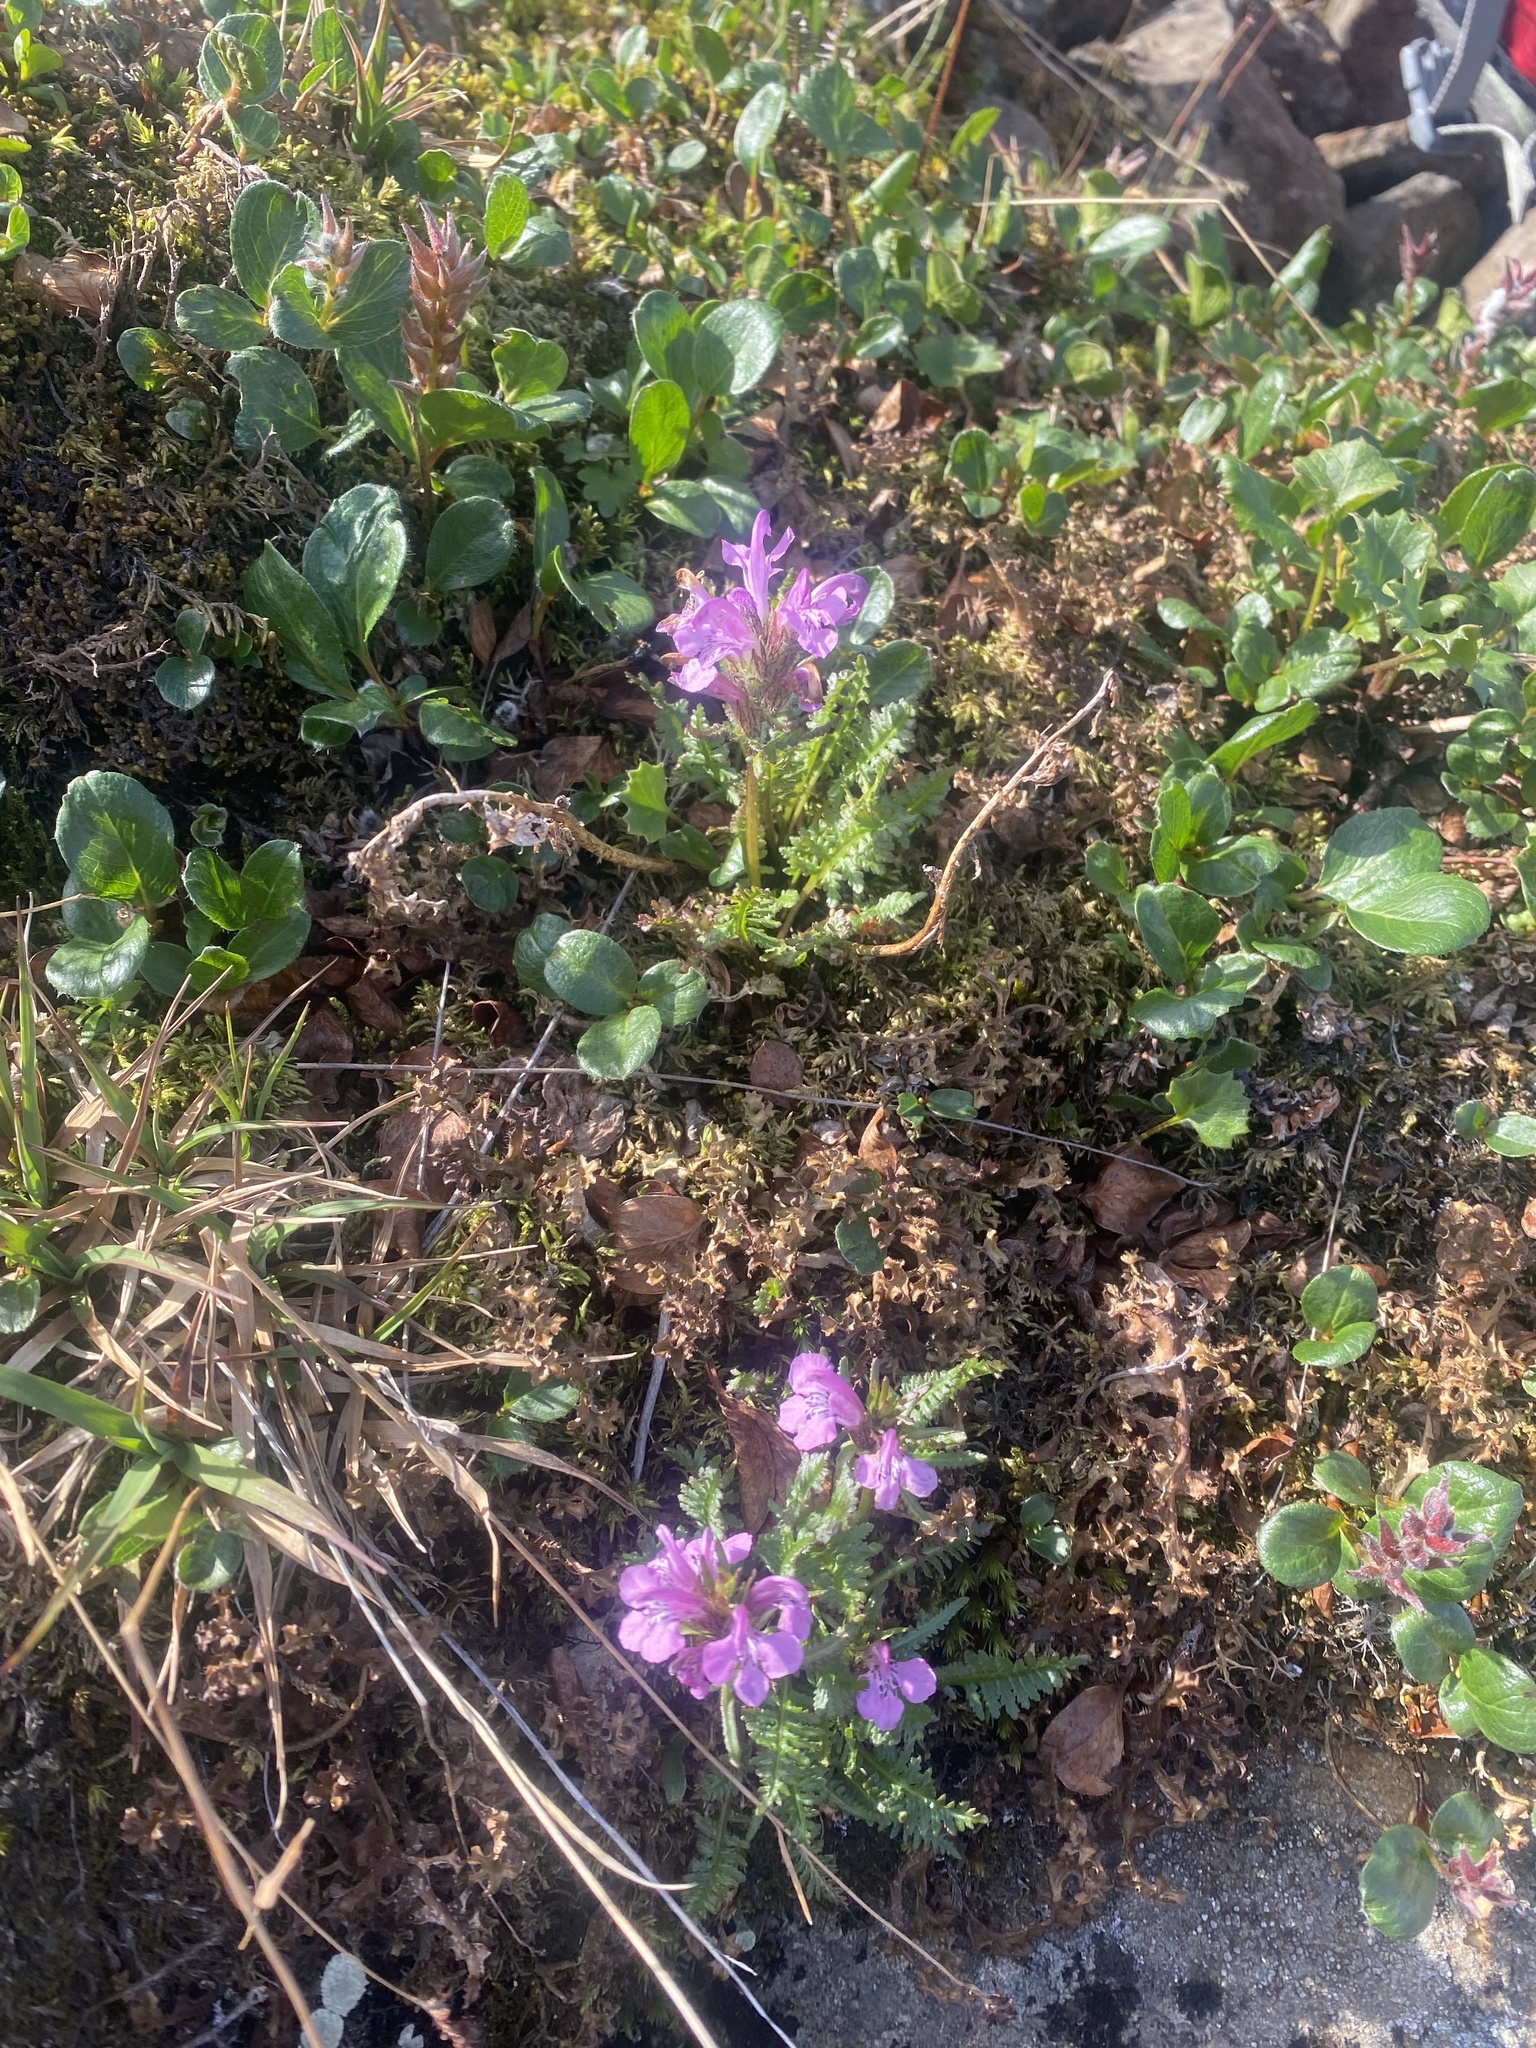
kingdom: Plantae
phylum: Tracheophyta
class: Magnoliopsida
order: Lamiales
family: Orobanchaceae
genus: Pedicularis
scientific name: Pedicularis amoena
